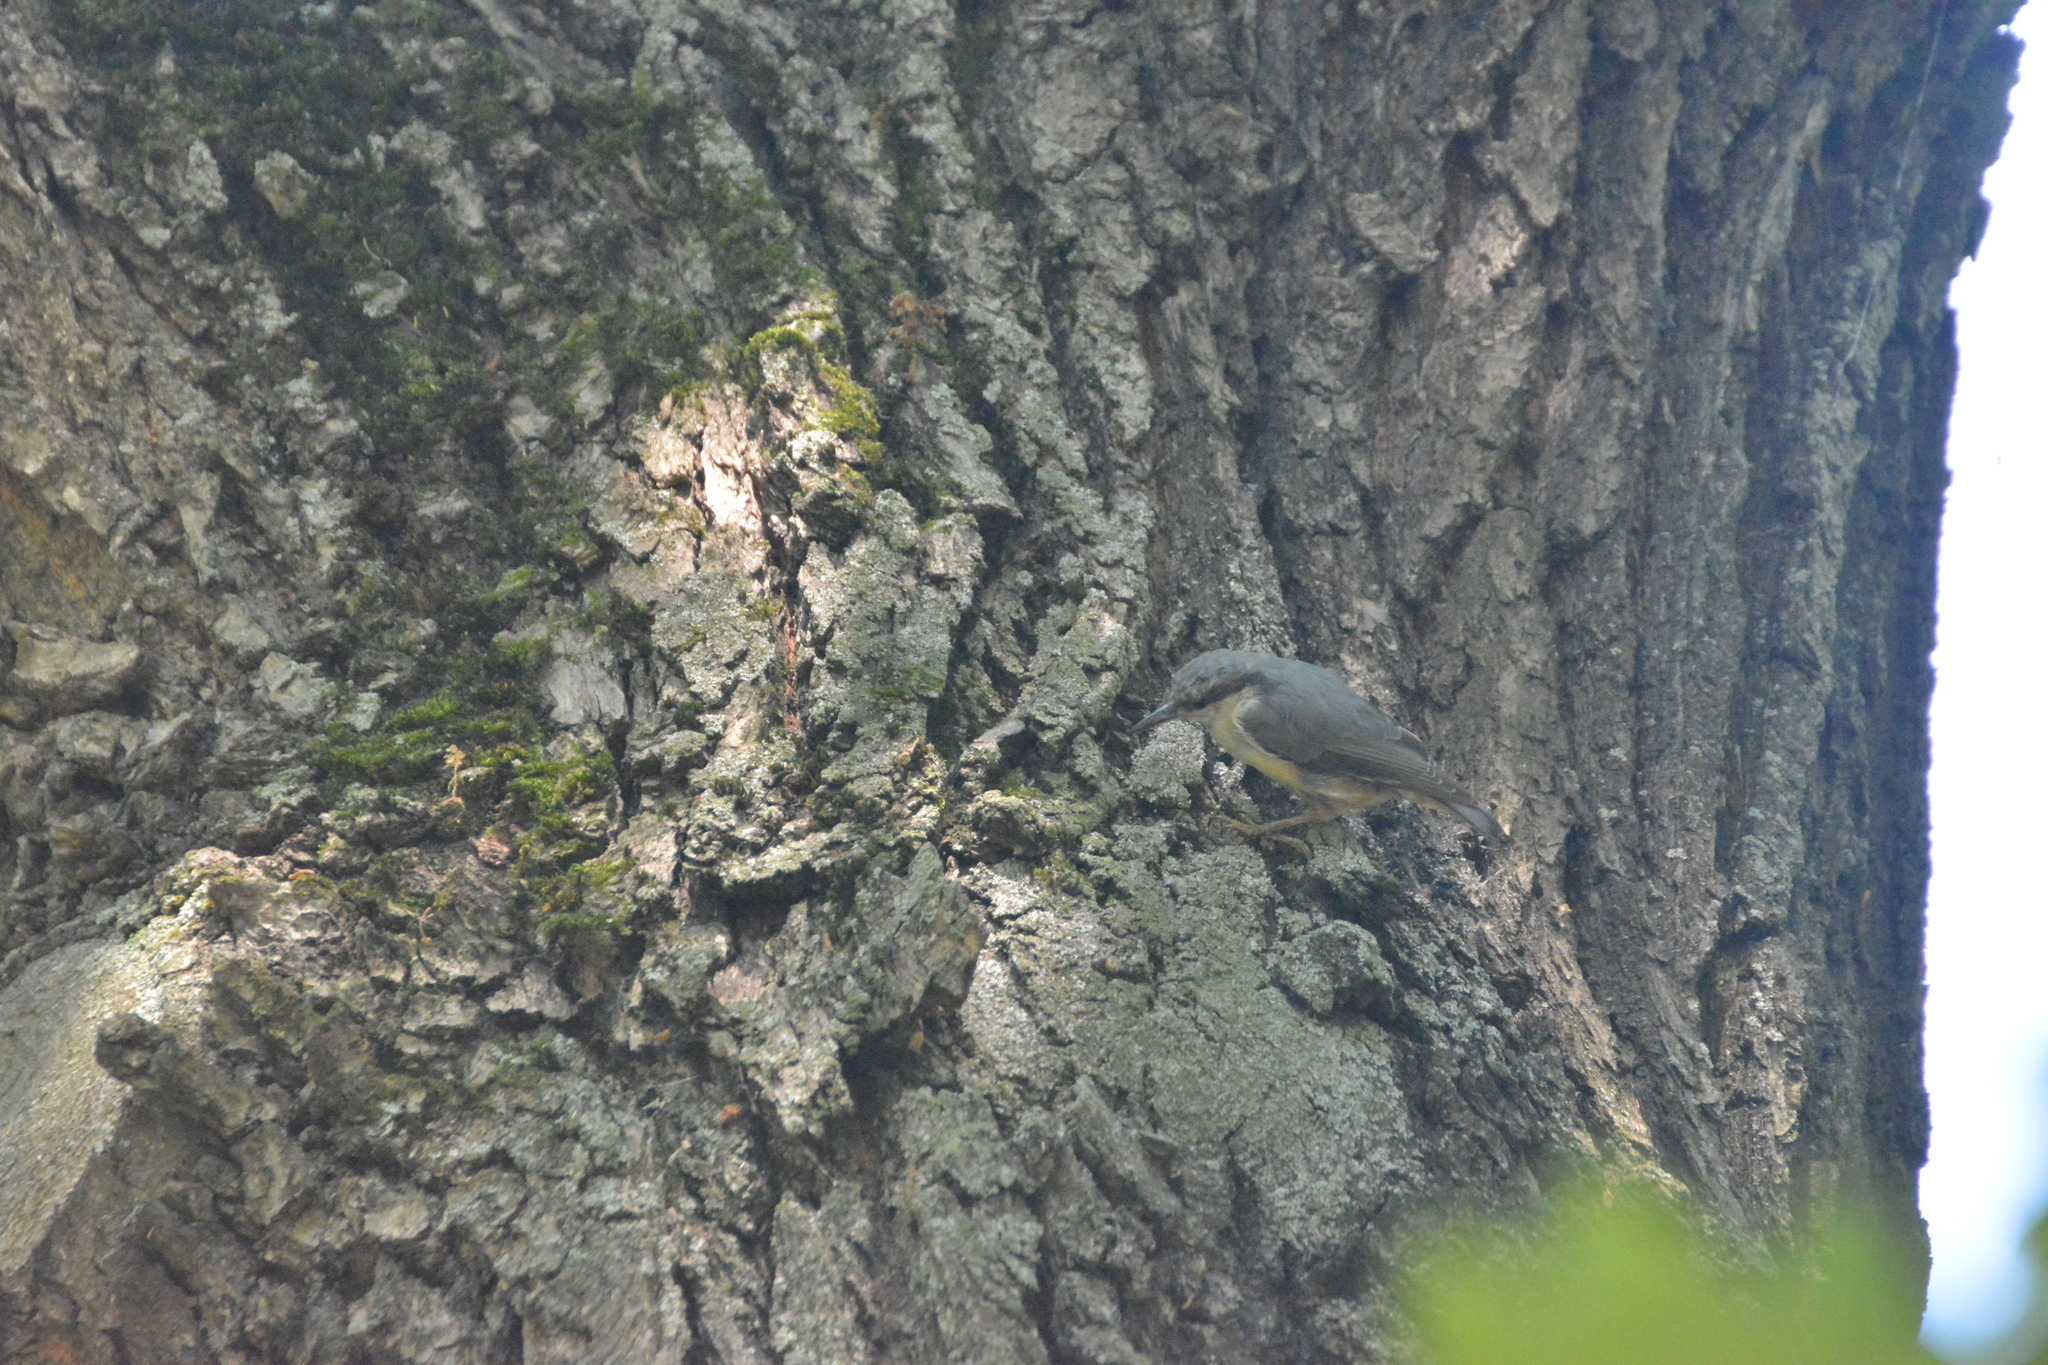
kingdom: Animalia
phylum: Chordata
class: Aves
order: Passeriformes
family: Sittidae
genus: Sitta
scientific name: Sitta europaea
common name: Eurasian nuthatch
